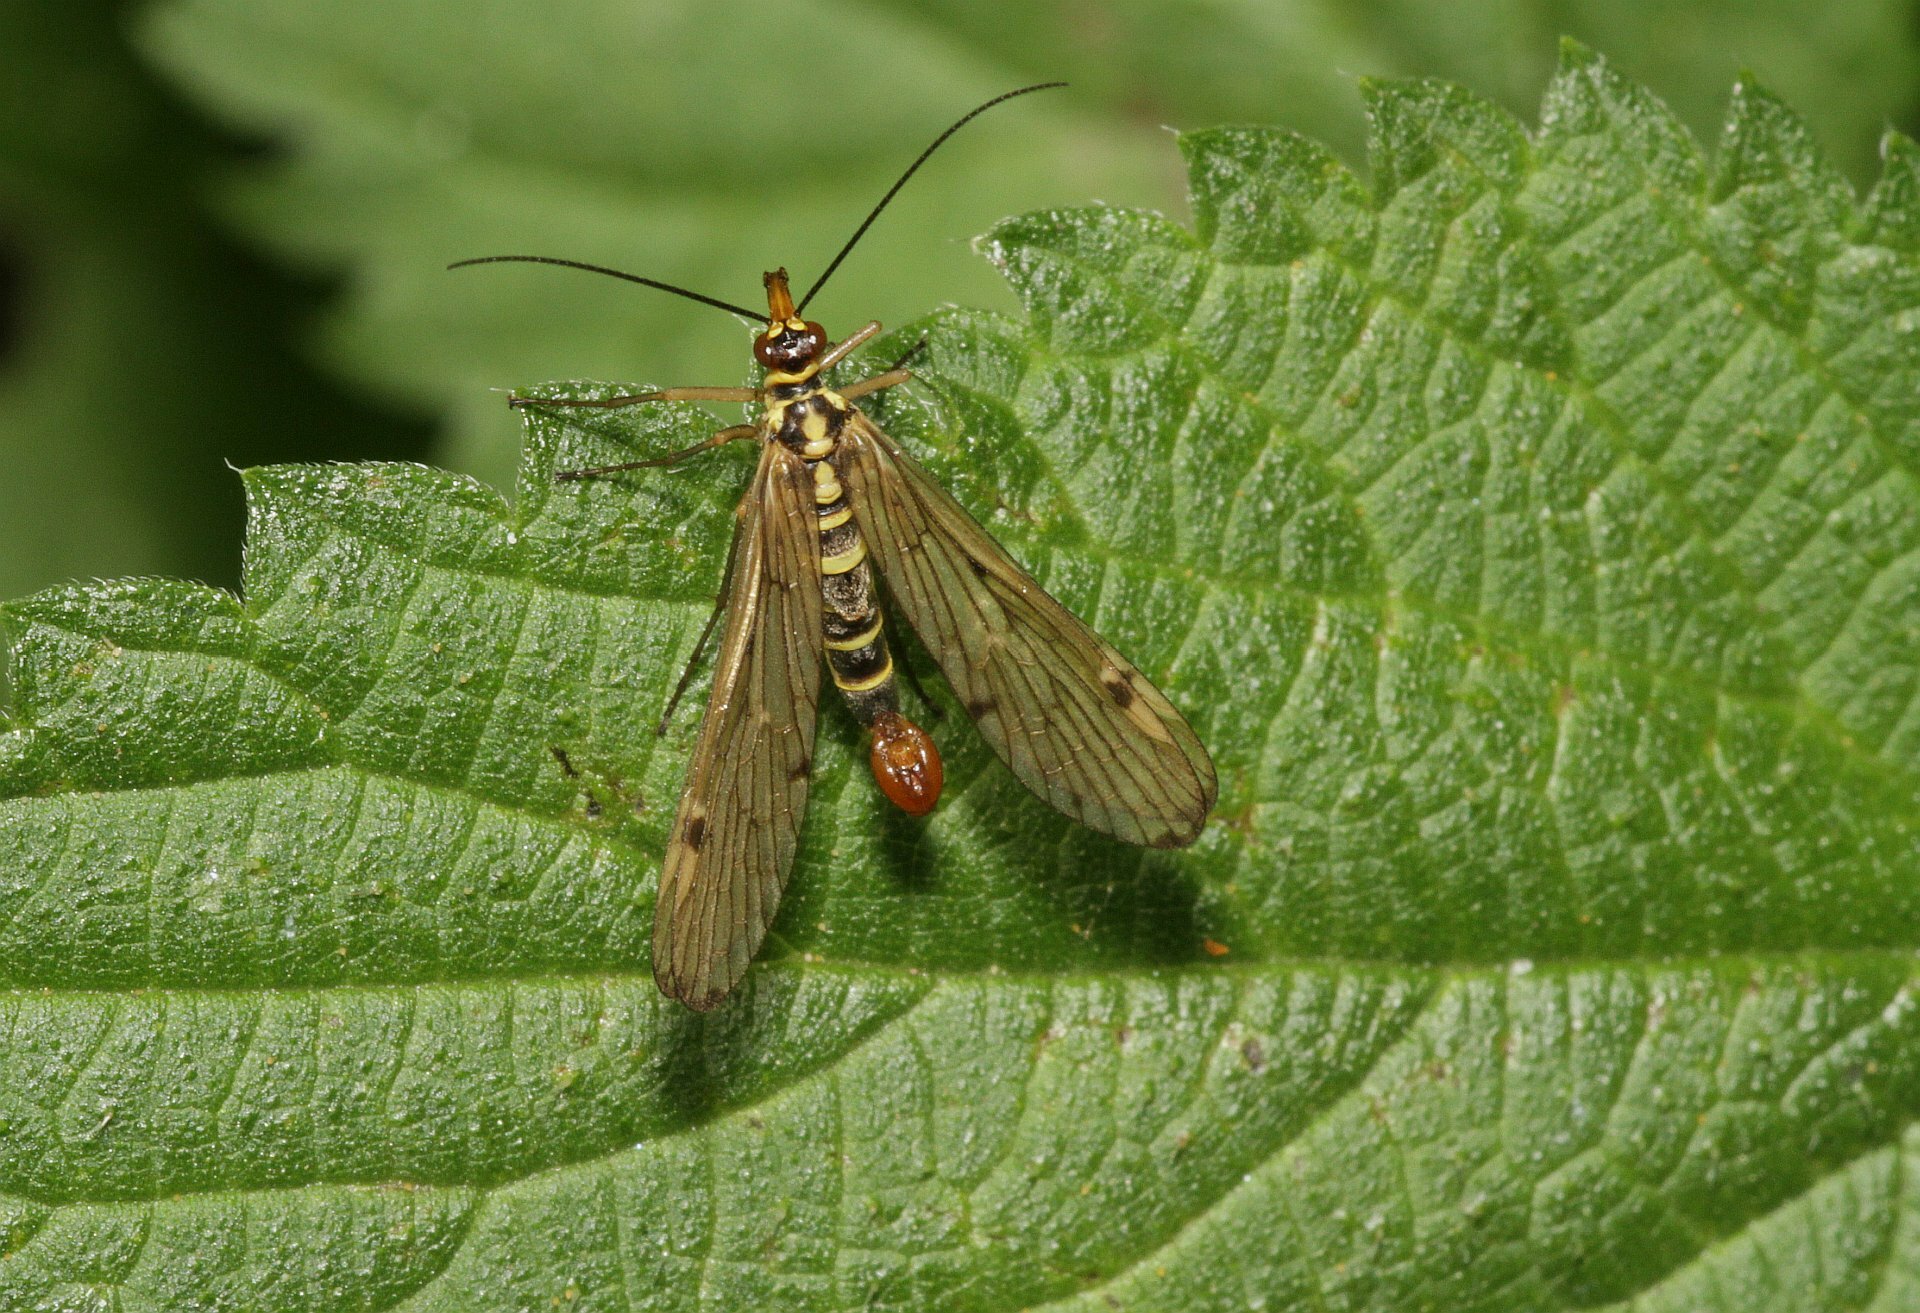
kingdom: Animalia
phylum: Arthropoda
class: Insecta
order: Mecoptera
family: Panorpidae
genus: Panorpa
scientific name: Panorpa germanica
